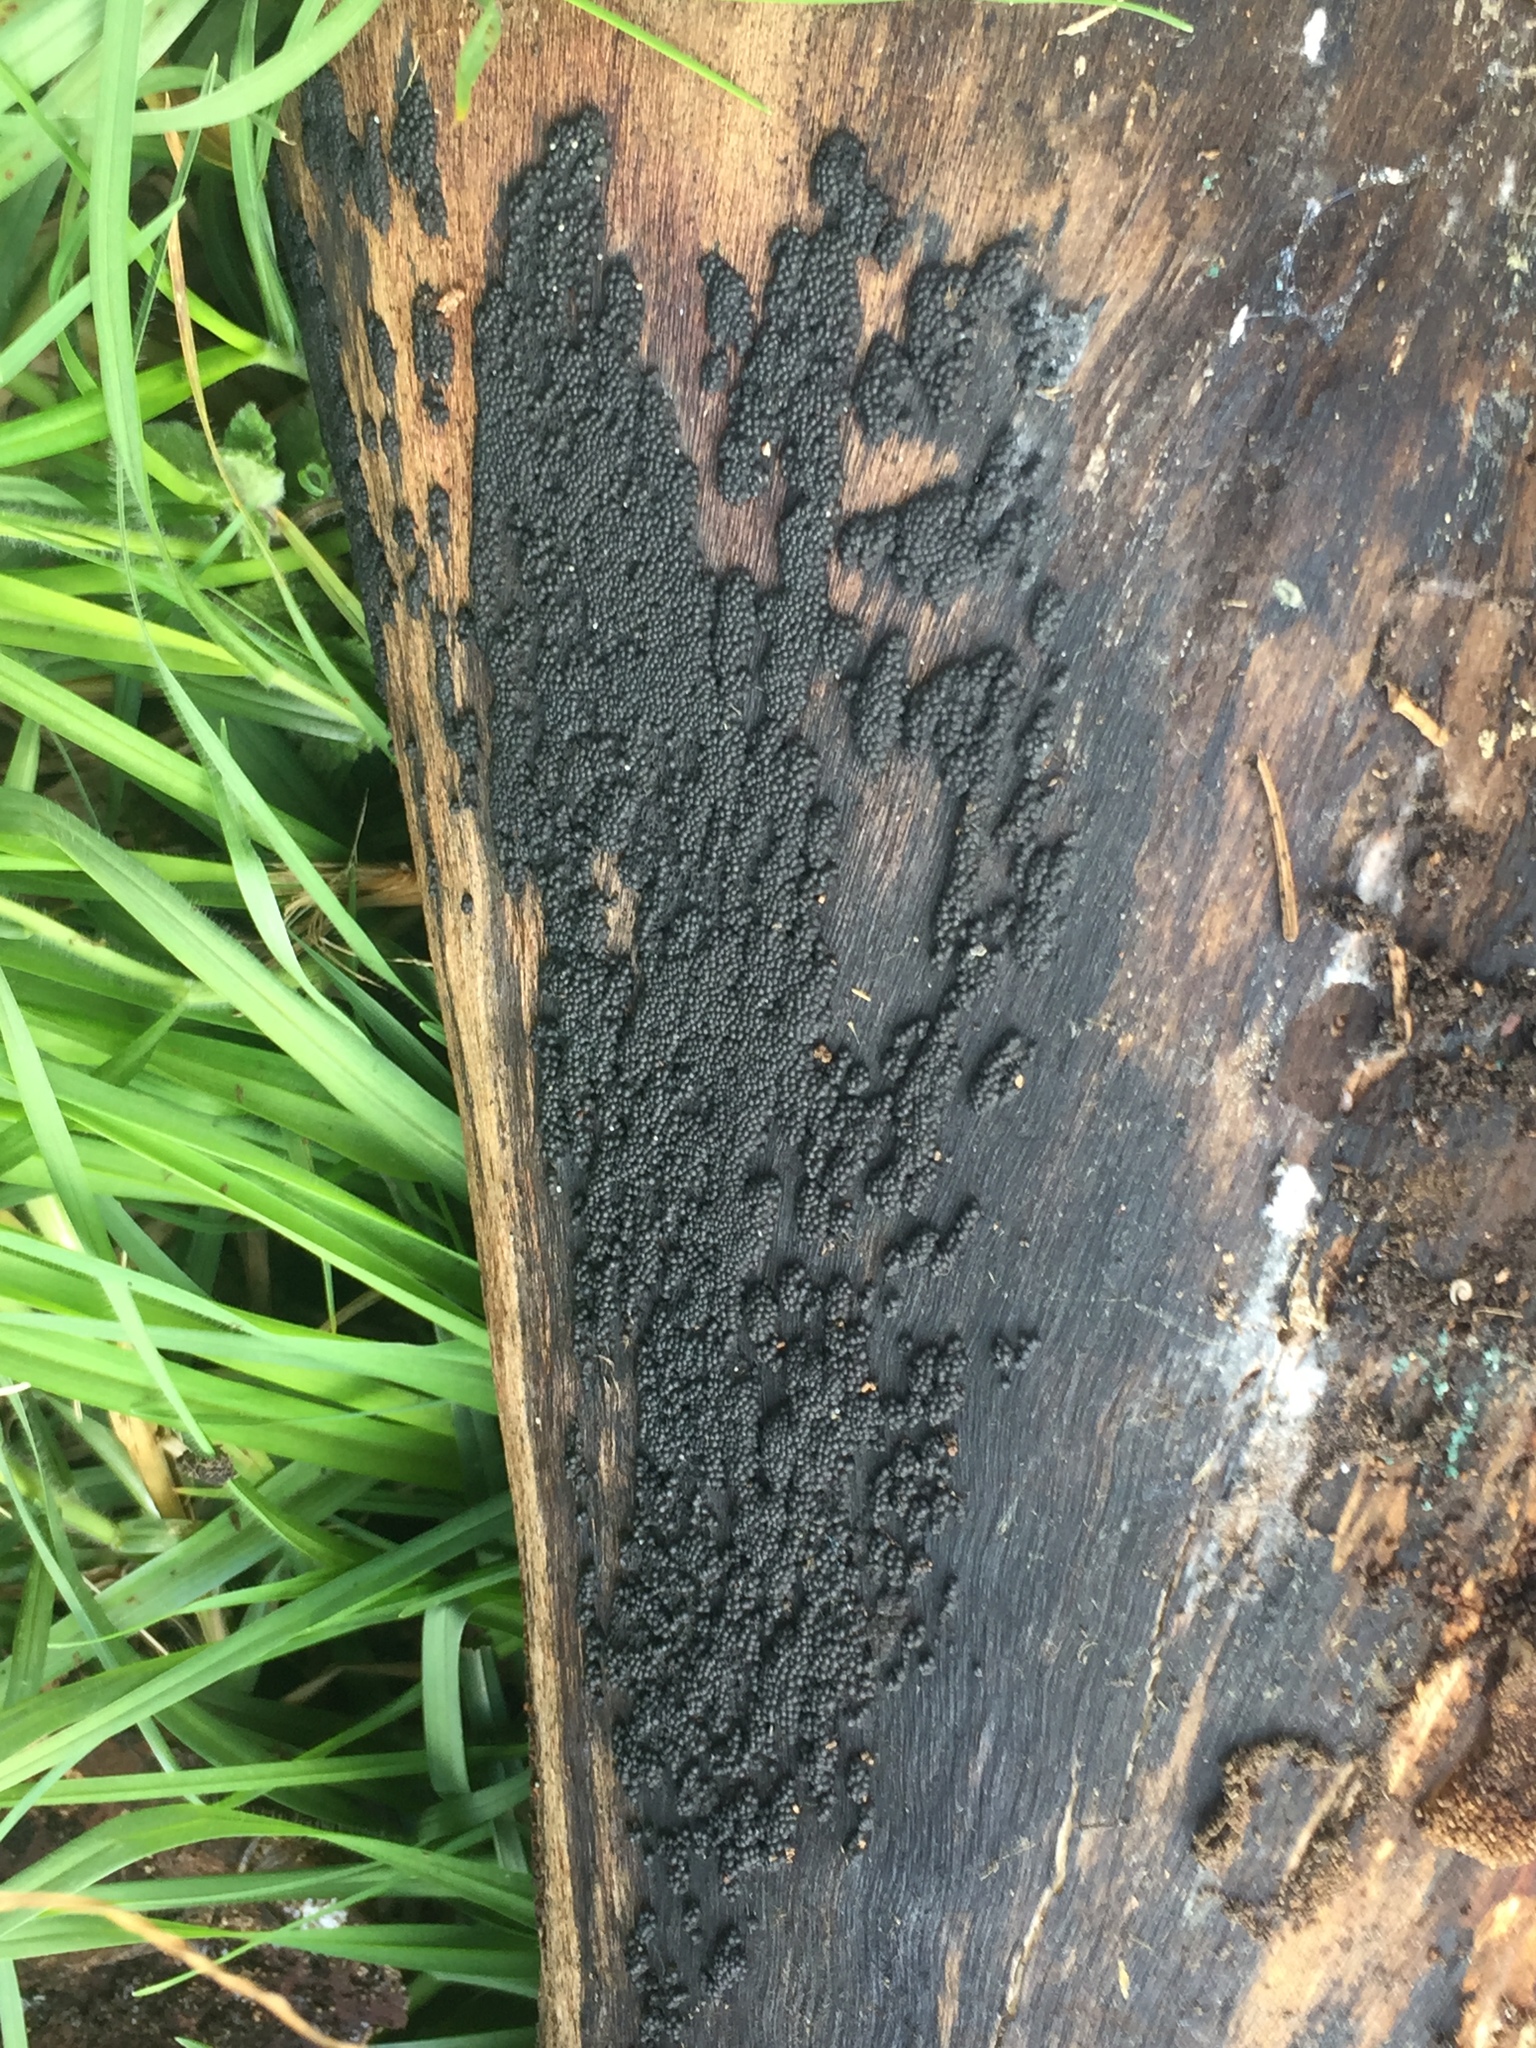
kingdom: Fungi
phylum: Ascomycota
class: Sordariomycetes
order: Xylariales
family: Hypoxylaceae
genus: Annulohypoxylon
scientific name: Annulohypoxylon bovei
